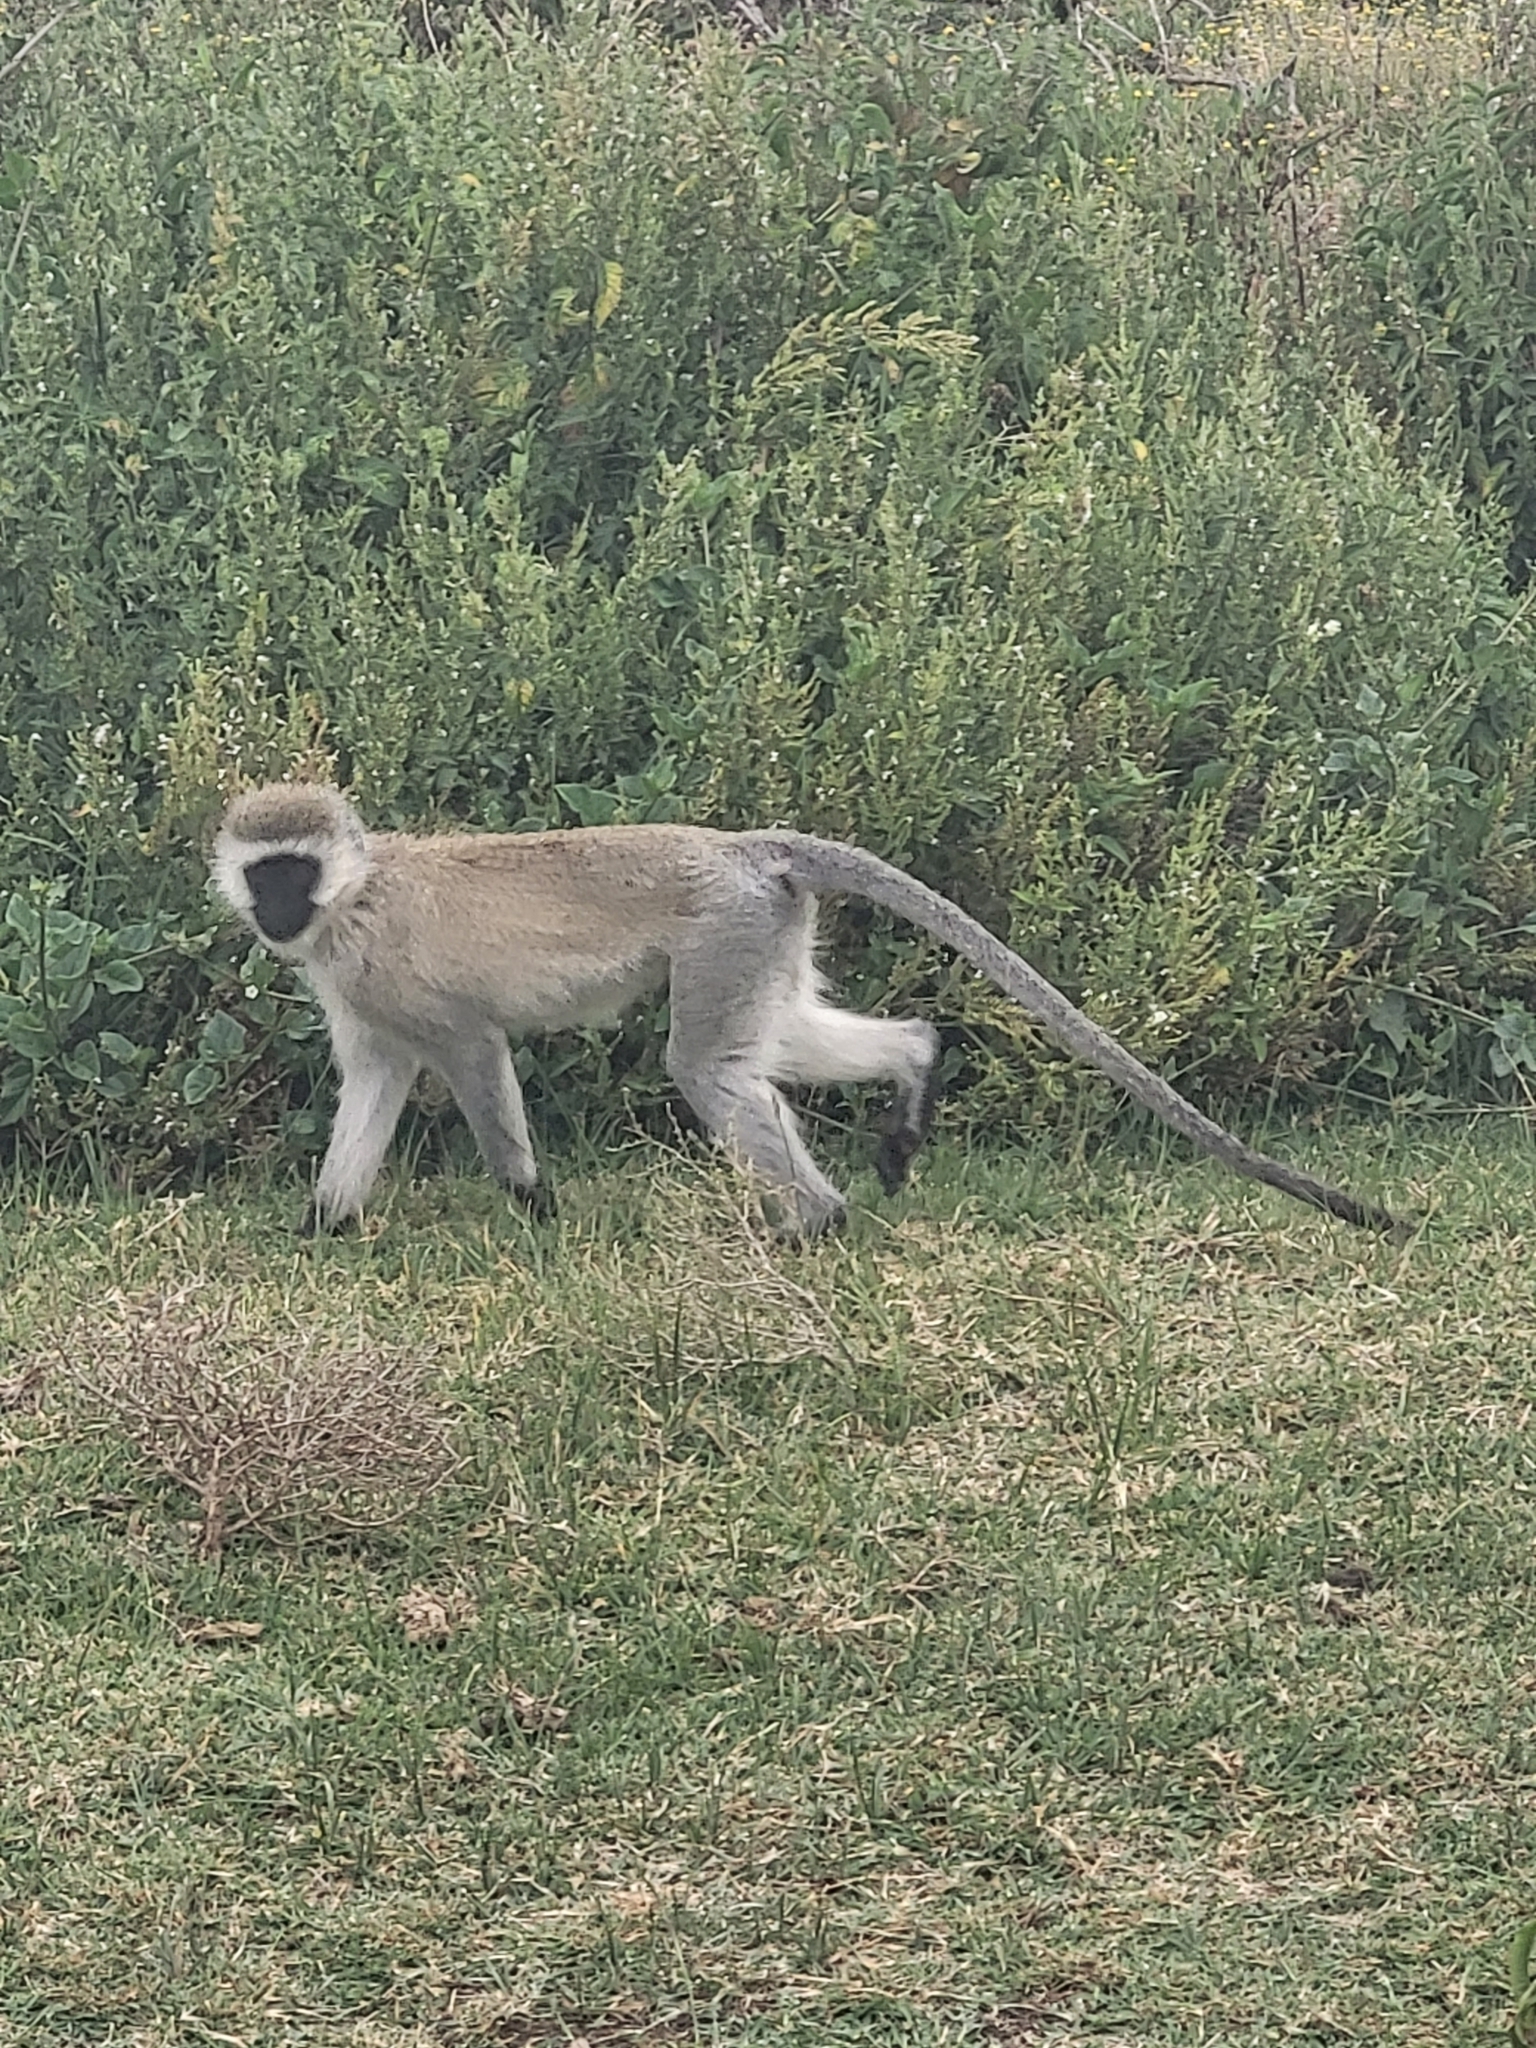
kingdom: Animalia
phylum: Chordata
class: Mammalia
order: Primates
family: Cercopithecidae
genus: Chlorocebus
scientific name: Chlorocebus pygerythrus
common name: Vervet monkey
